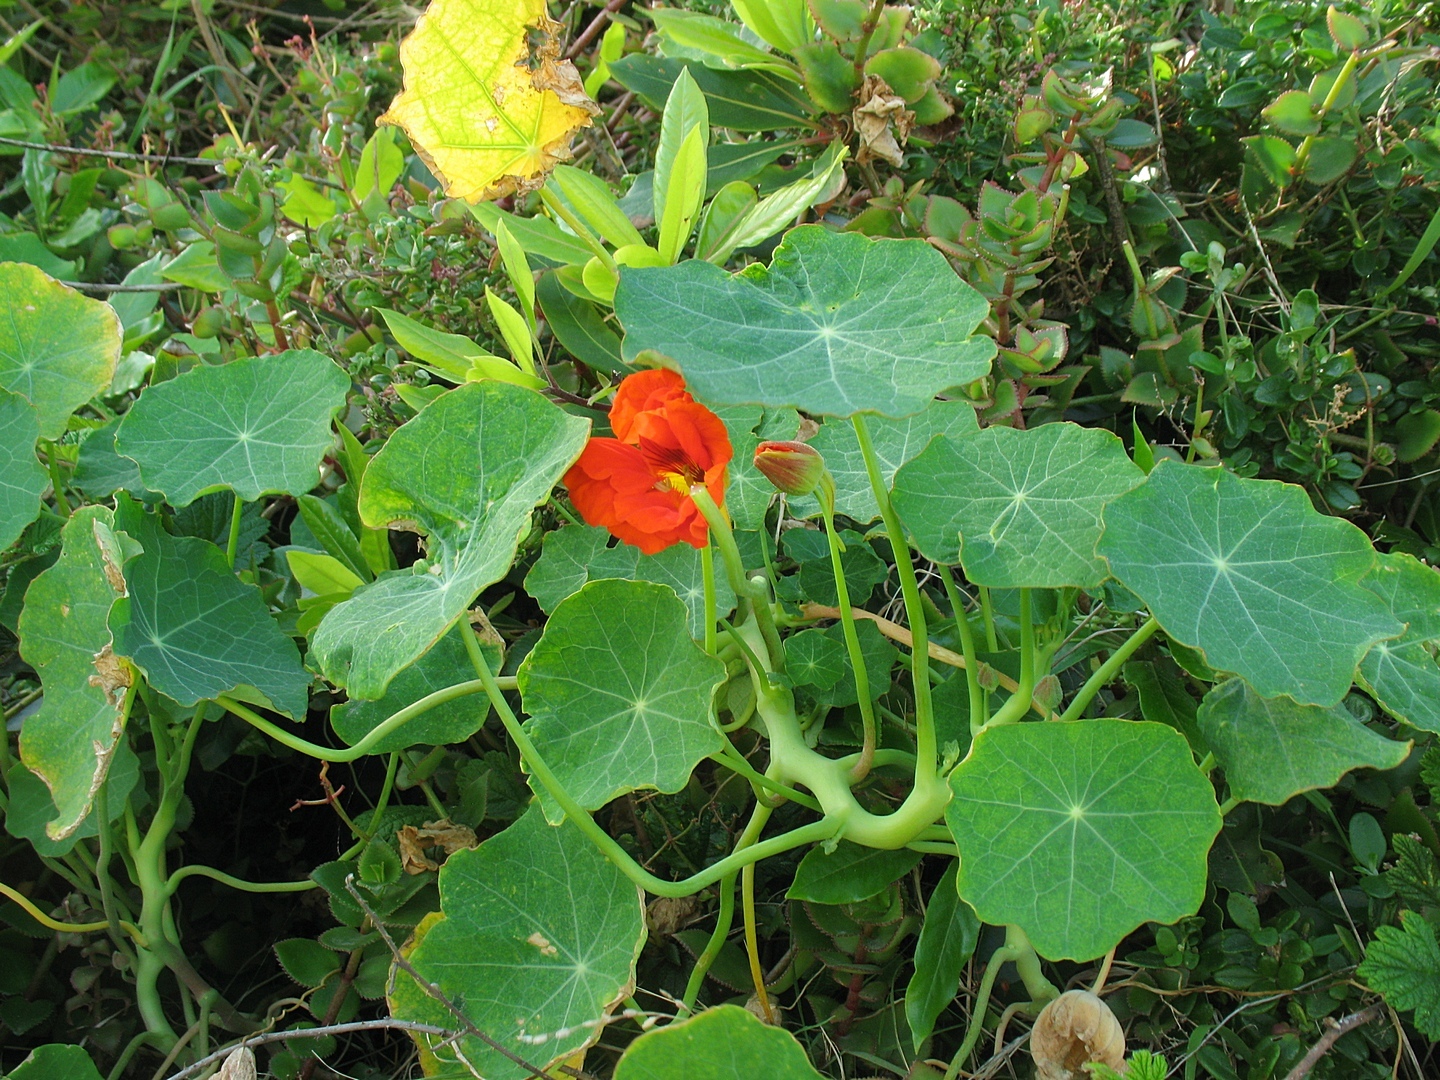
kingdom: Plantae
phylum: Tracheophyta
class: Magnoliopsida
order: Brassicales
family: Tropaeolaceae
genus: Tropaeolum
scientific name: Tropaeolum majus
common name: Nasturtium
